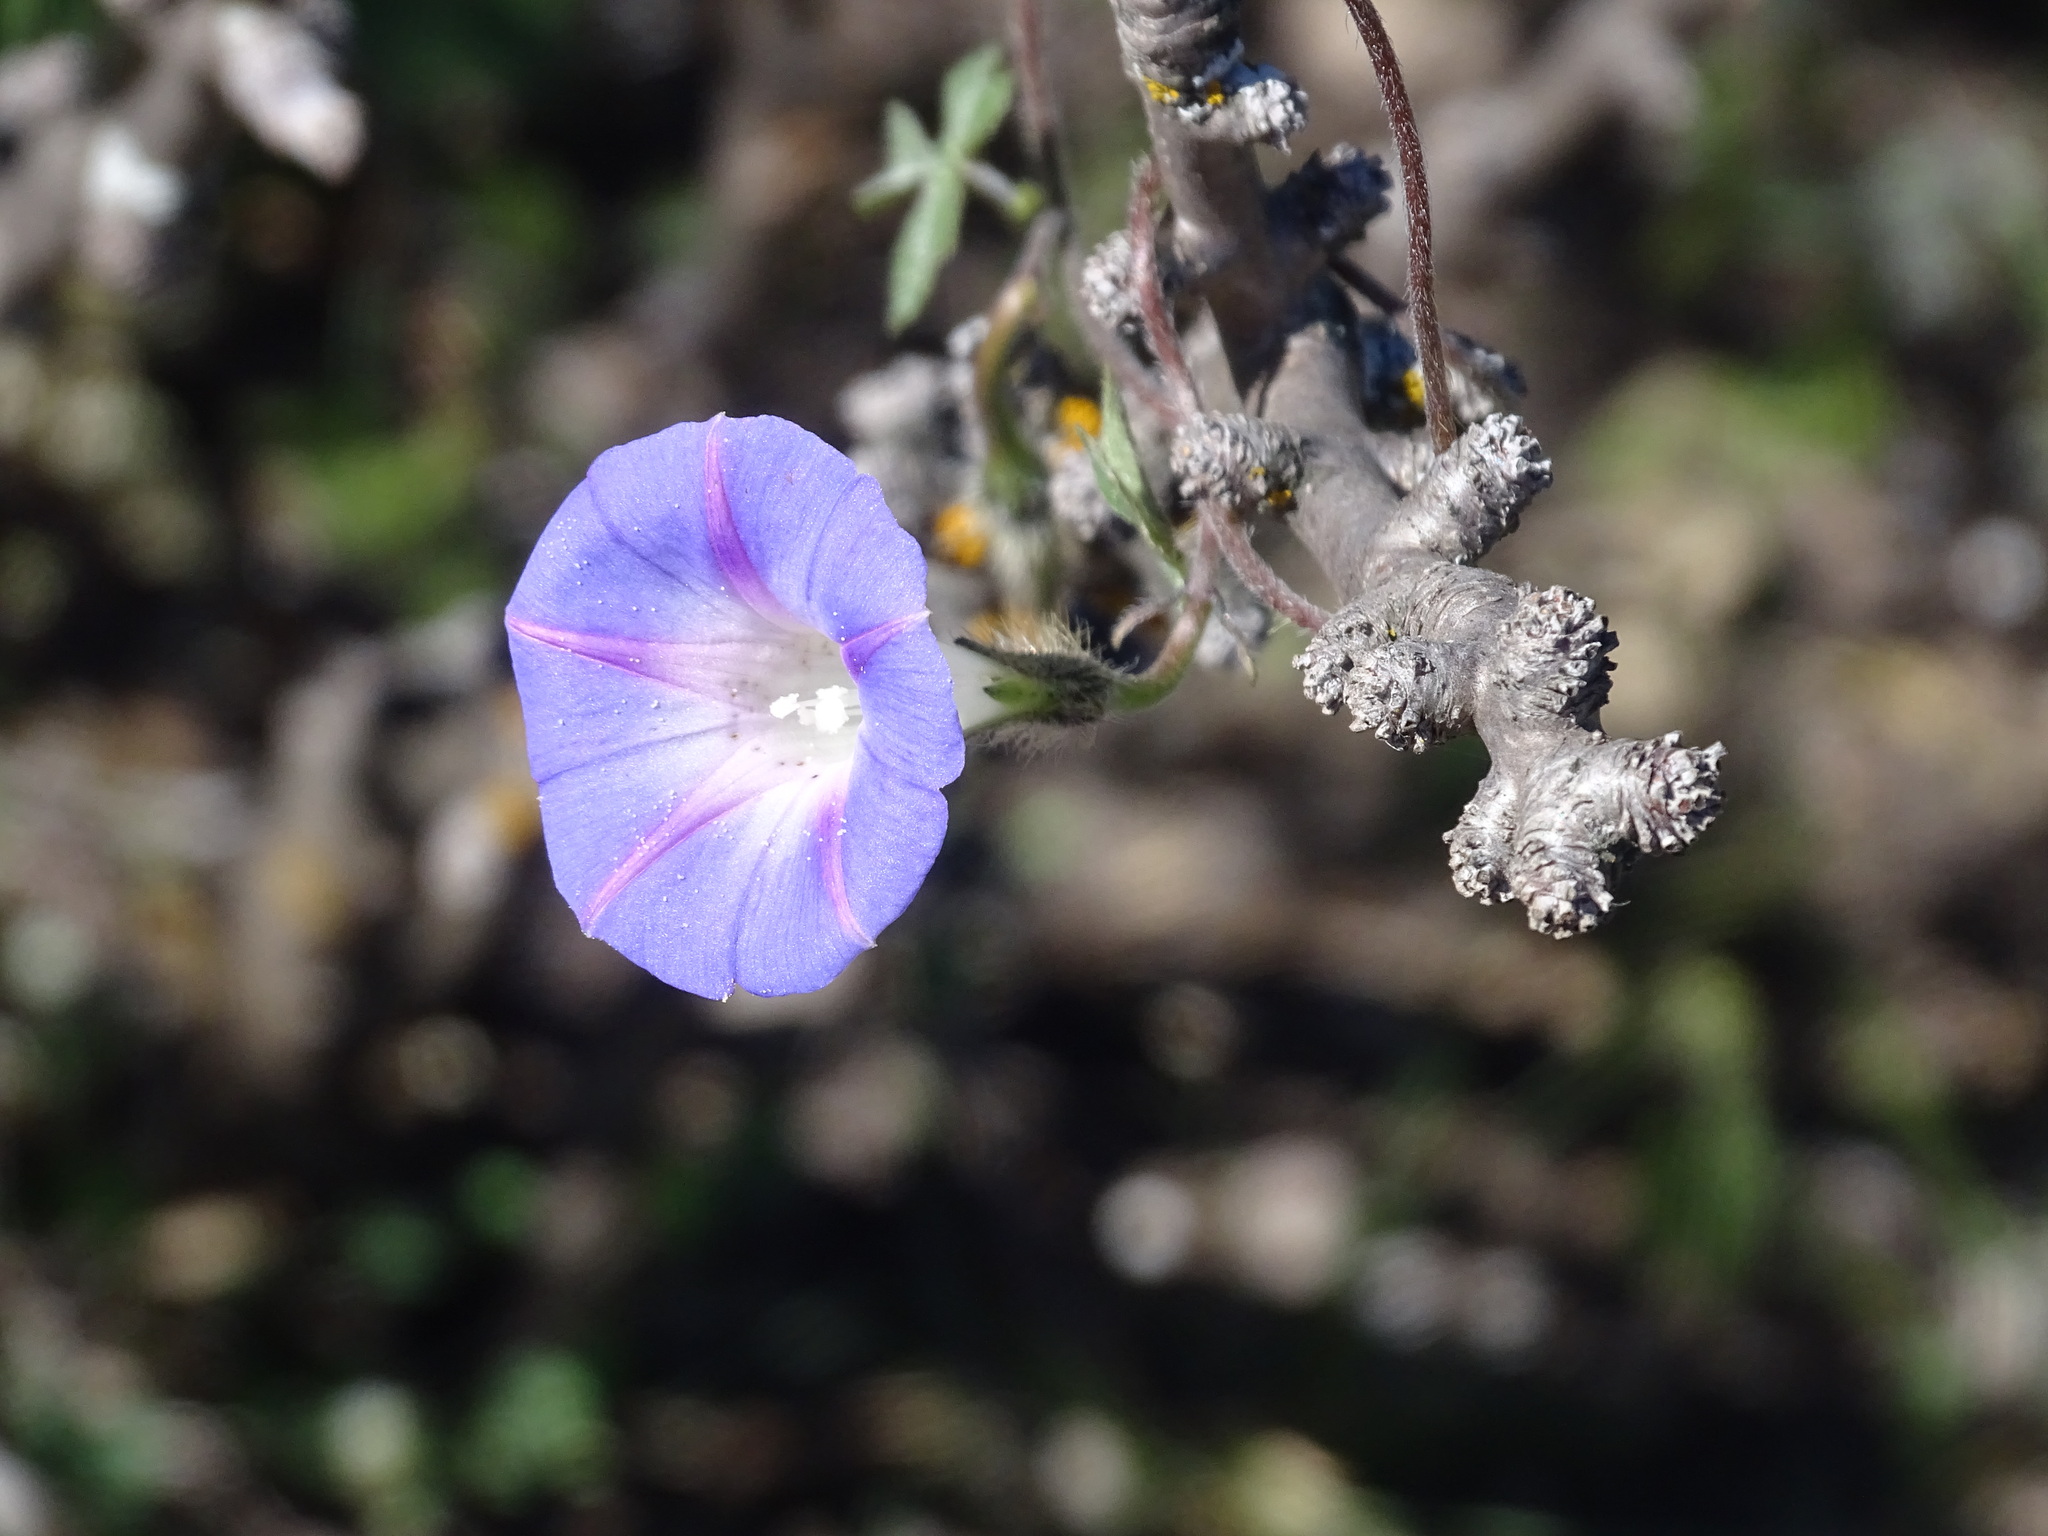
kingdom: Plantae
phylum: Tracheophyta
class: Magnoliopsida
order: Solanales
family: Convolvulaceae
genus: Ipomoea
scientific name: Ipomoea purpurea
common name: Common morning-glory
